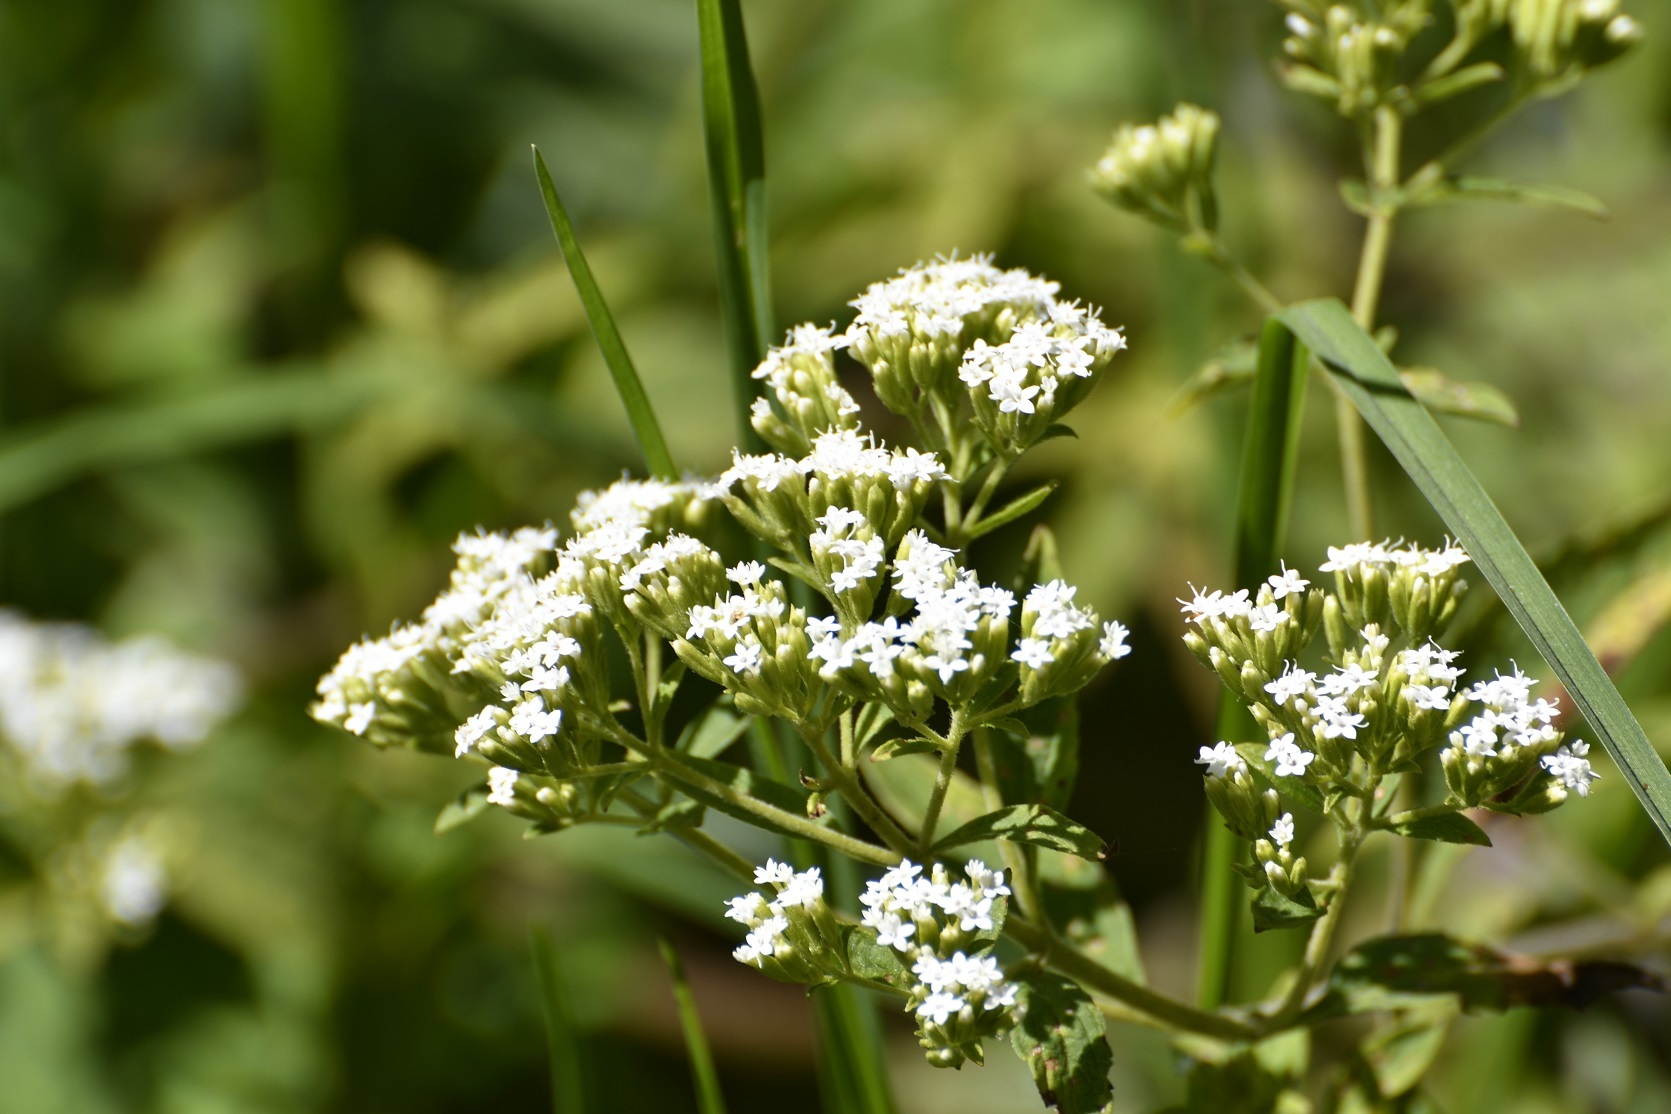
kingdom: Plantae
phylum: Tracheophyta
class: Magnoliopsida
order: Asterales
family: Asteraceae
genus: Stevia
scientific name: Stevia ovata
